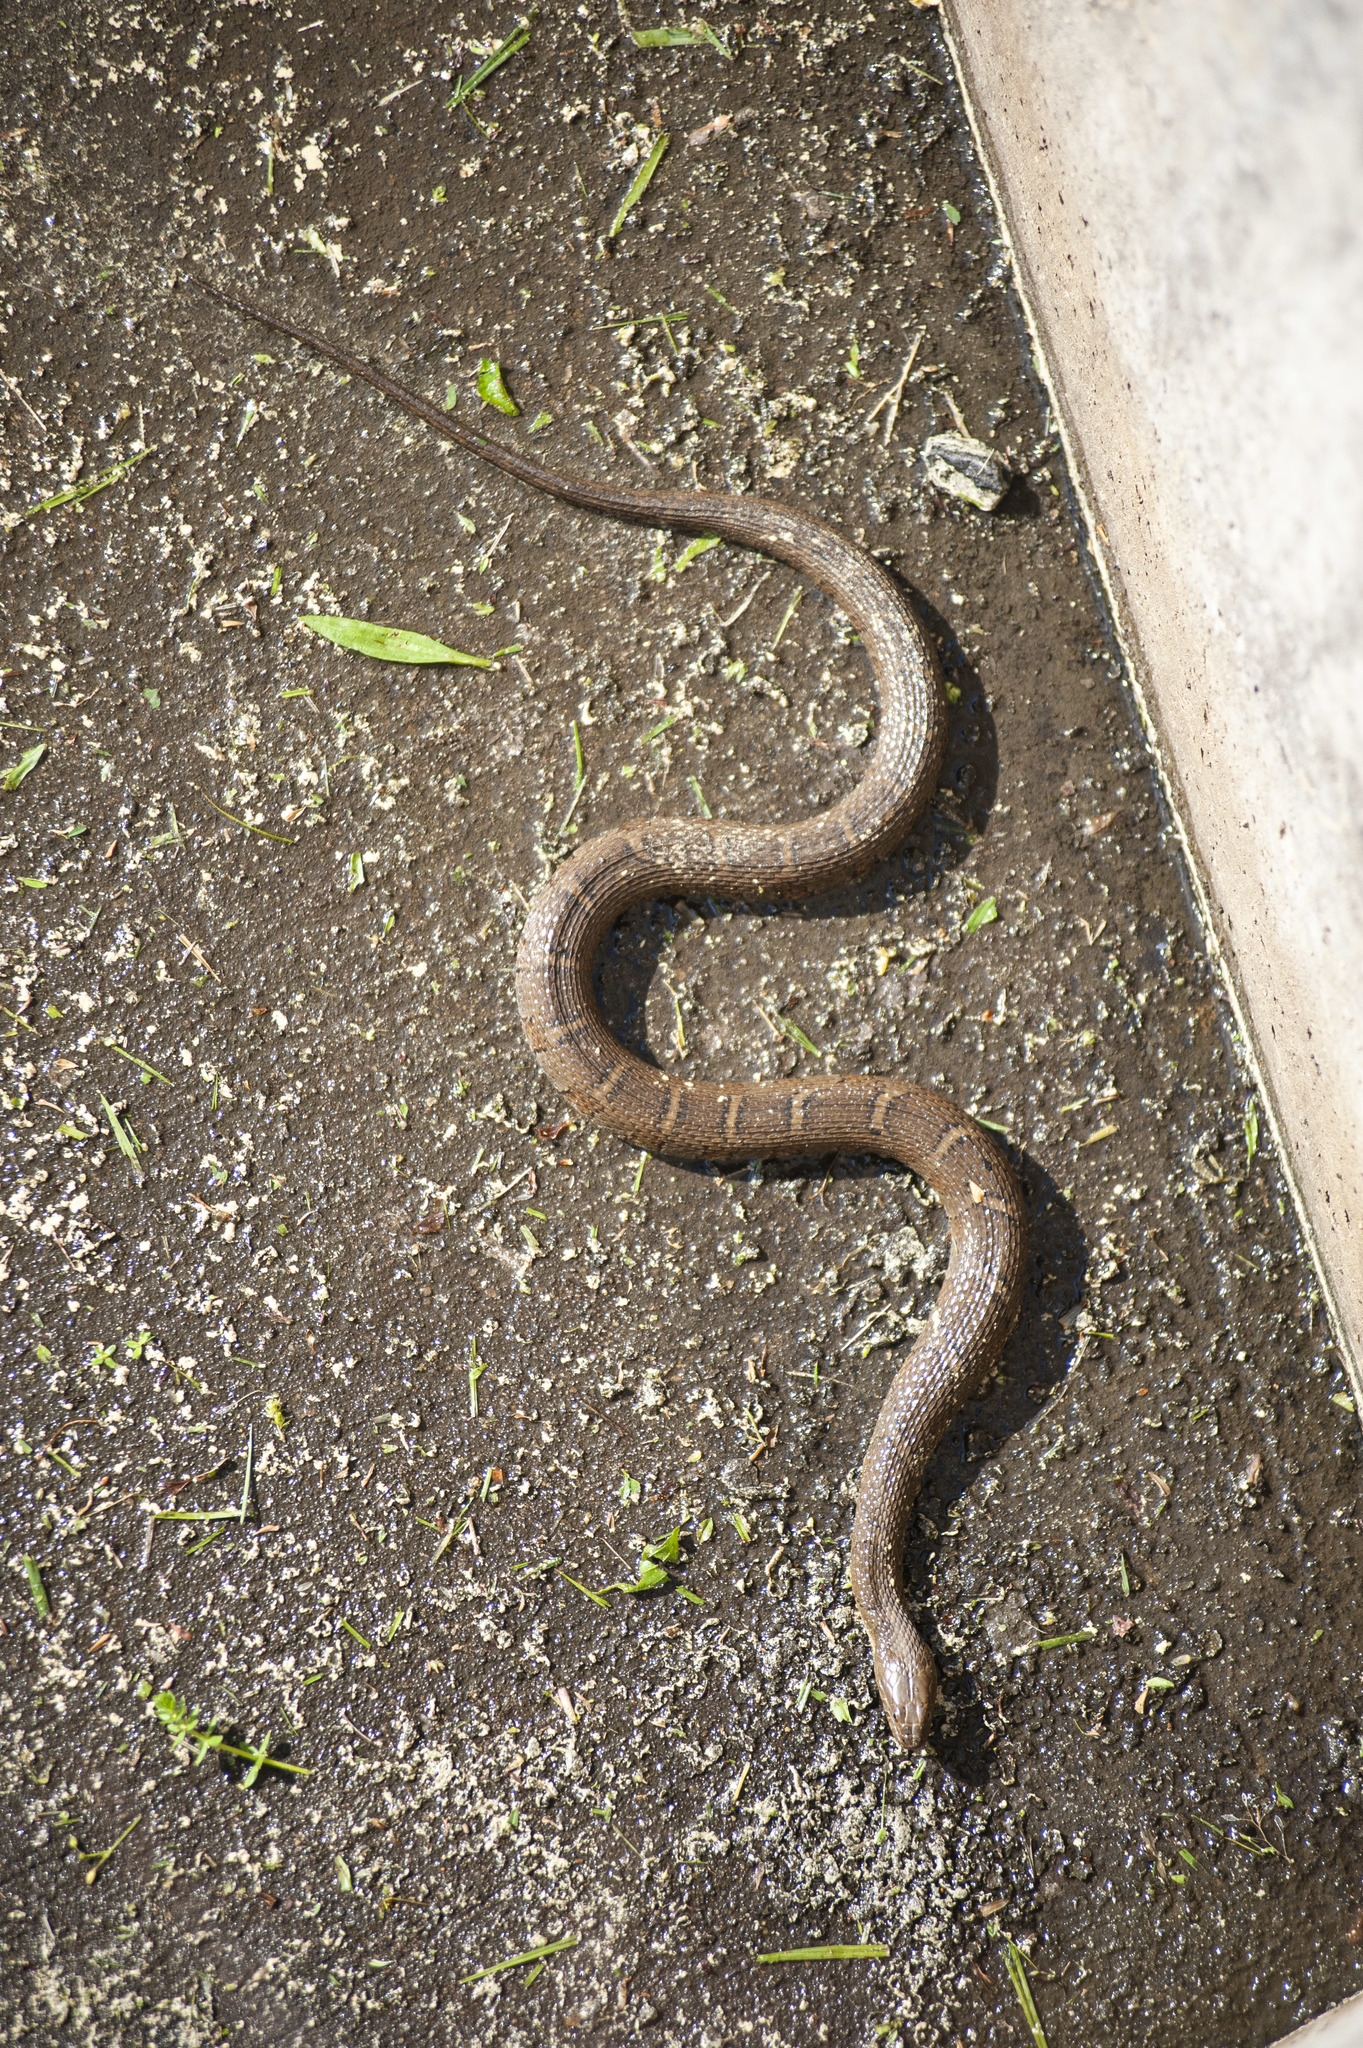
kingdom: Animalia
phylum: Chordata
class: Squamata
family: Colubridae
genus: Nerodia
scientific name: Nerodia sipedon
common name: Northern water snake
